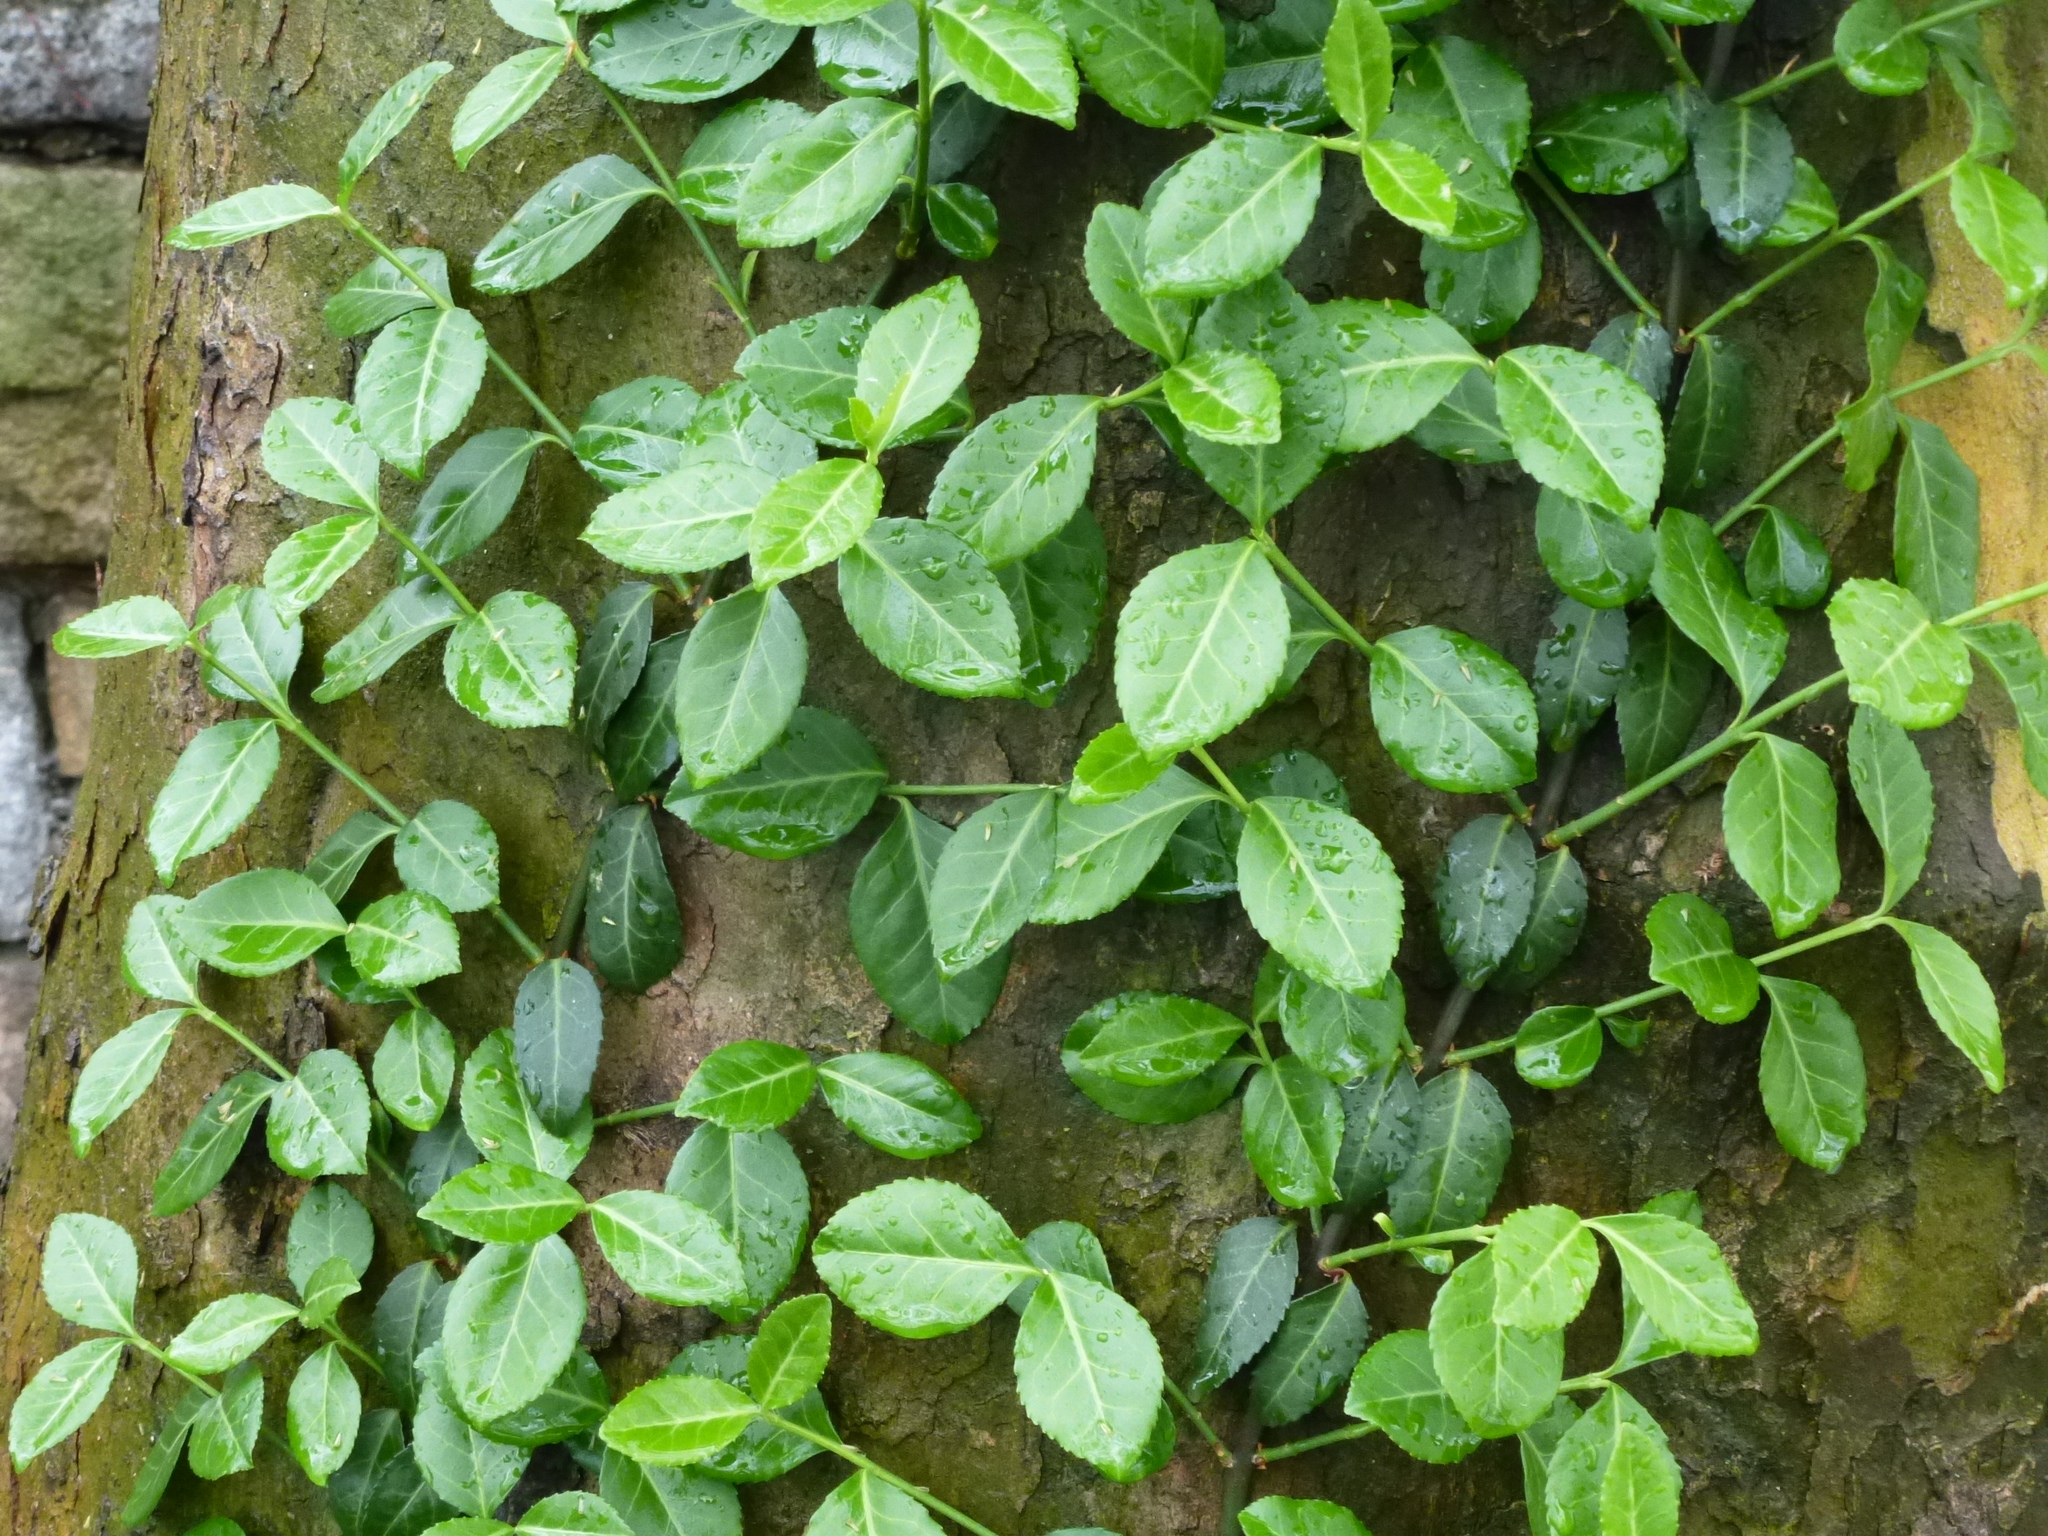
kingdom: Plantae
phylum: Tracheophyta
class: Magnoliopsida
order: Celastrales
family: Celastraceae
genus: Euonymus
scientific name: Euonymus fortunei
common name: Climbing euonymus
